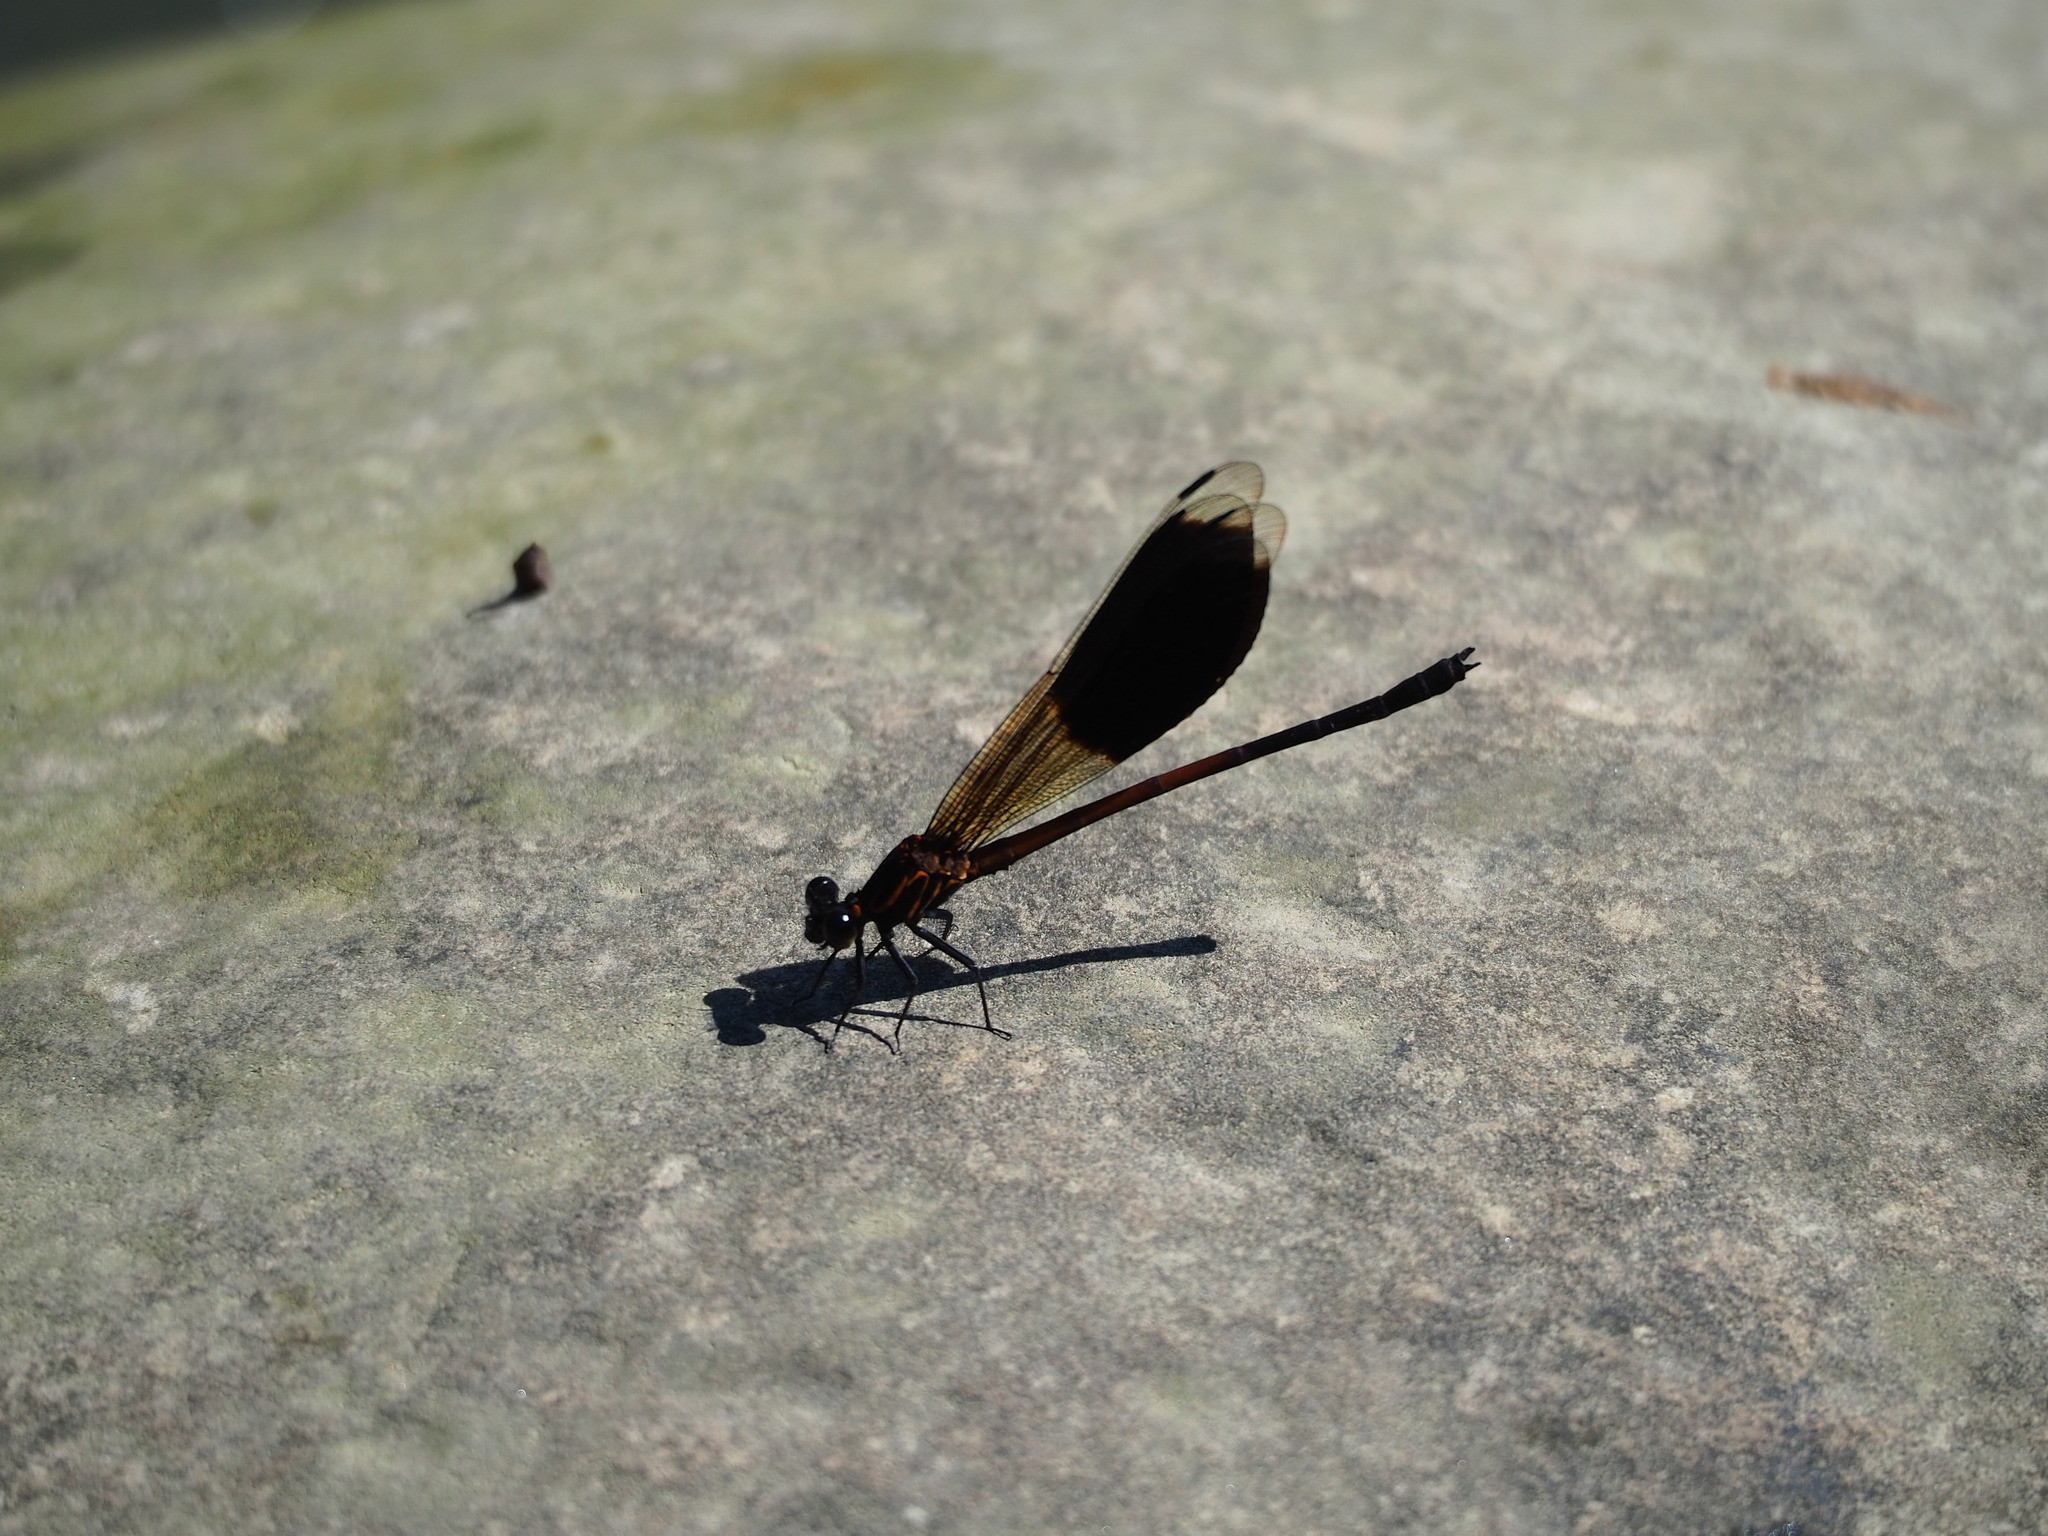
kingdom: Animalia
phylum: Arthropoda
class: Insecta
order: Odonata
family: Euphaeidae
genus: Euphaea
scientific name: Euphaea formosa
